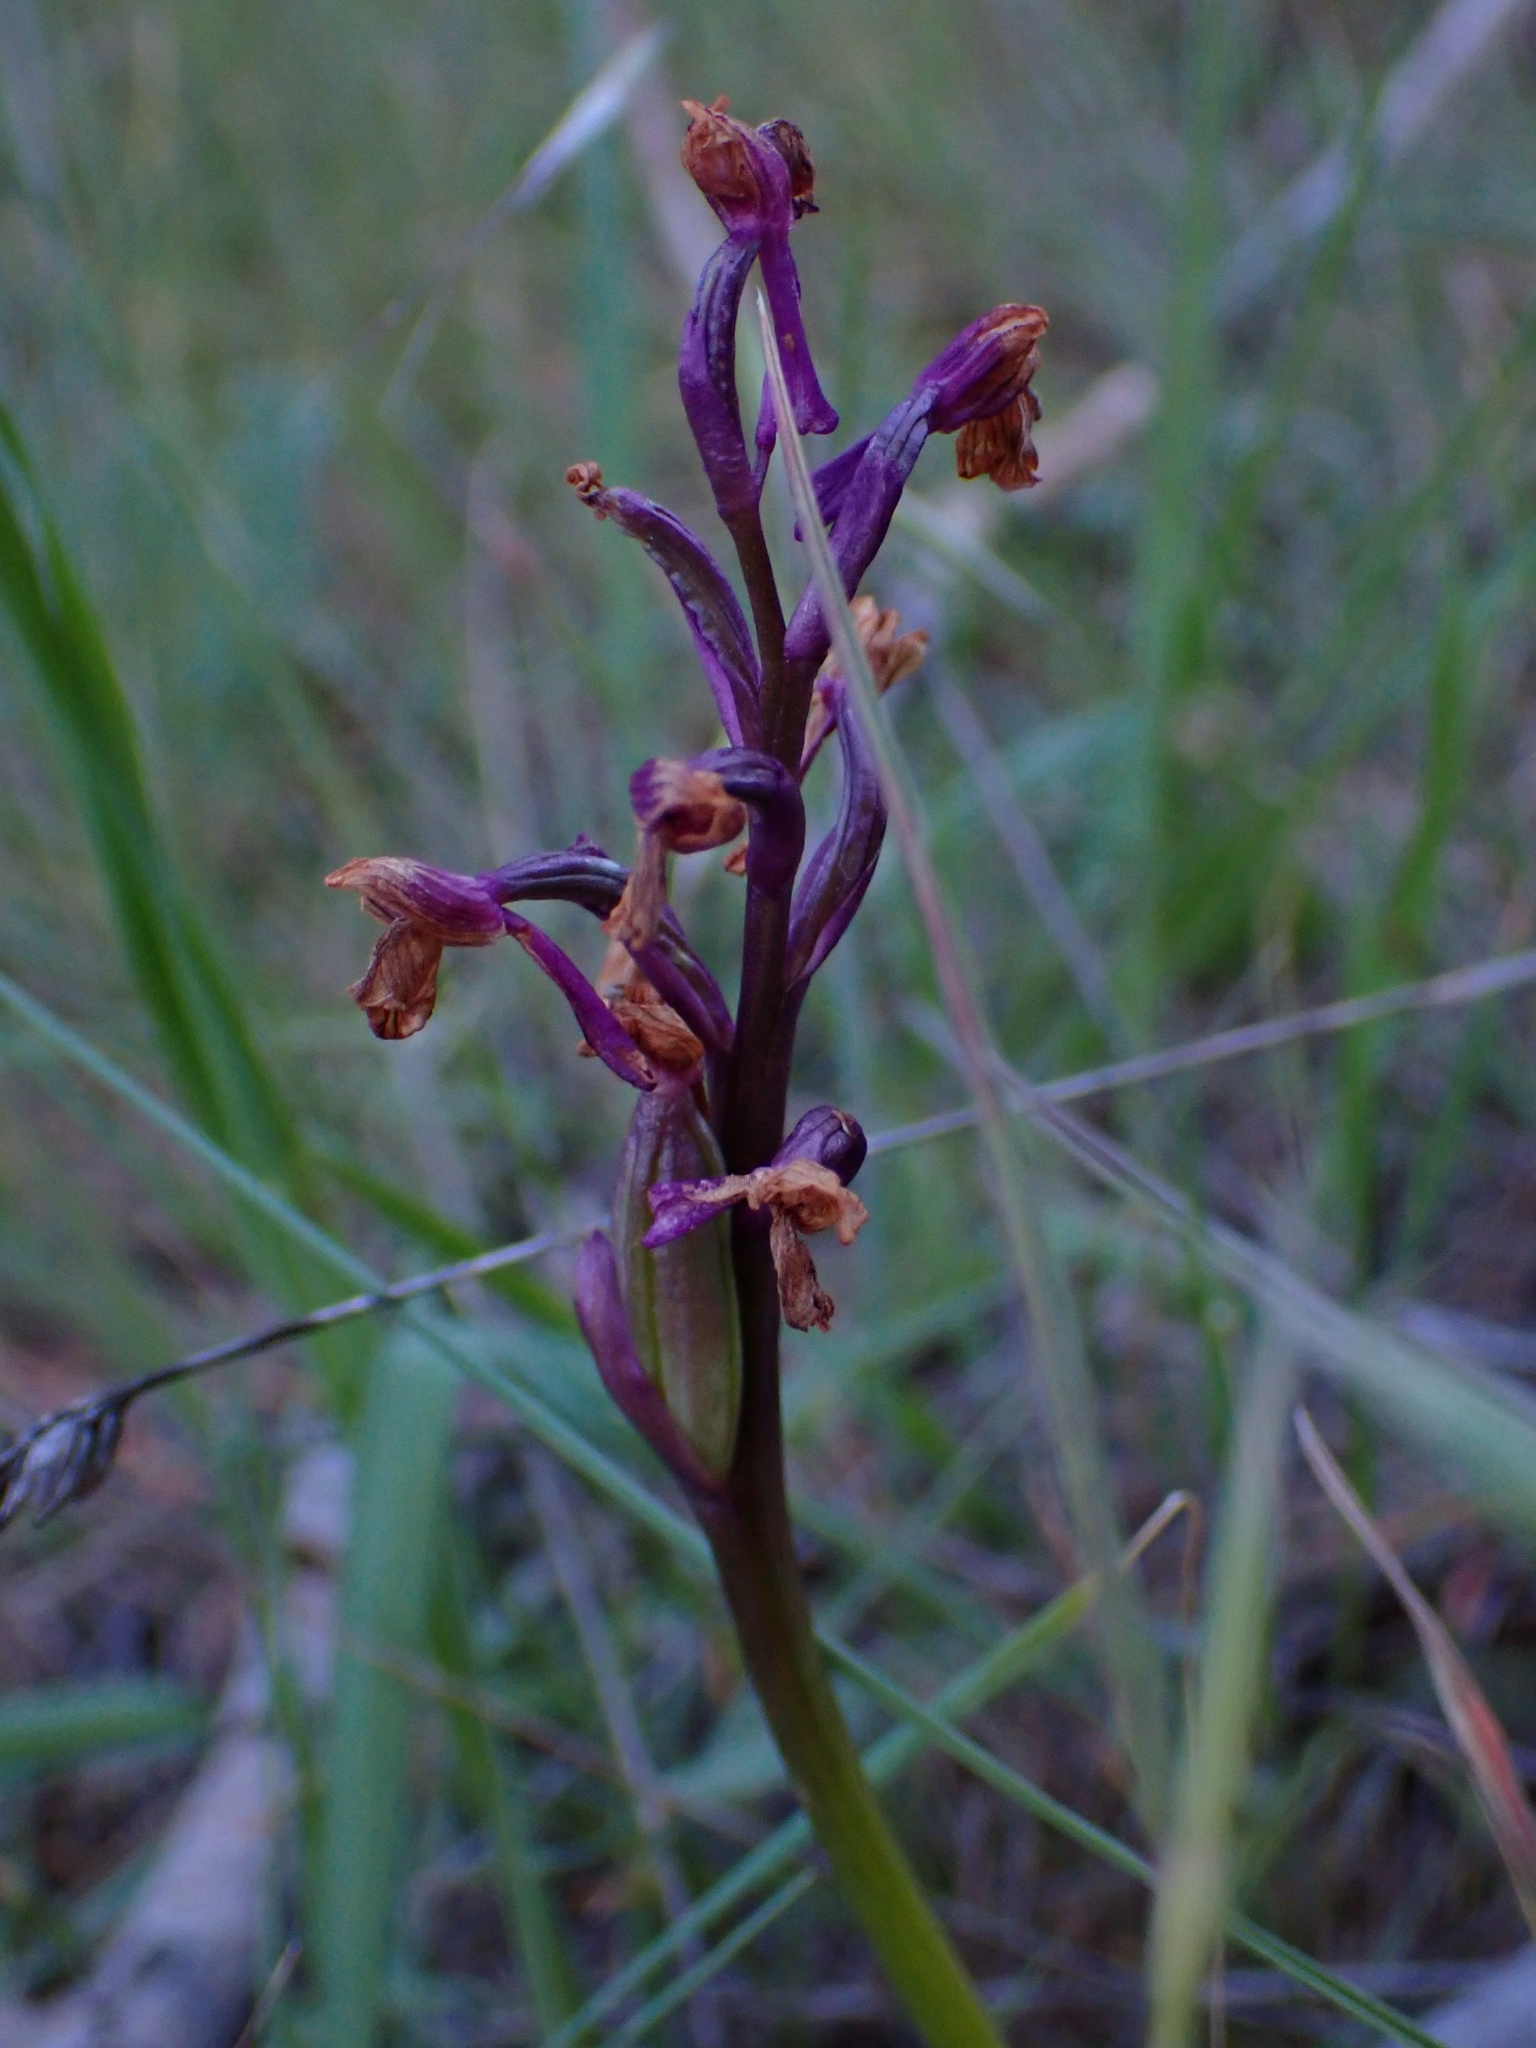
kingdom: Plantae
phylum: Tracheophyta
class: Liliopsida
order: Asparagales
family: Orchidaceae
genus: Anacamptis
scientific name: Anacamptis morio
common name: Green-winged orchid
